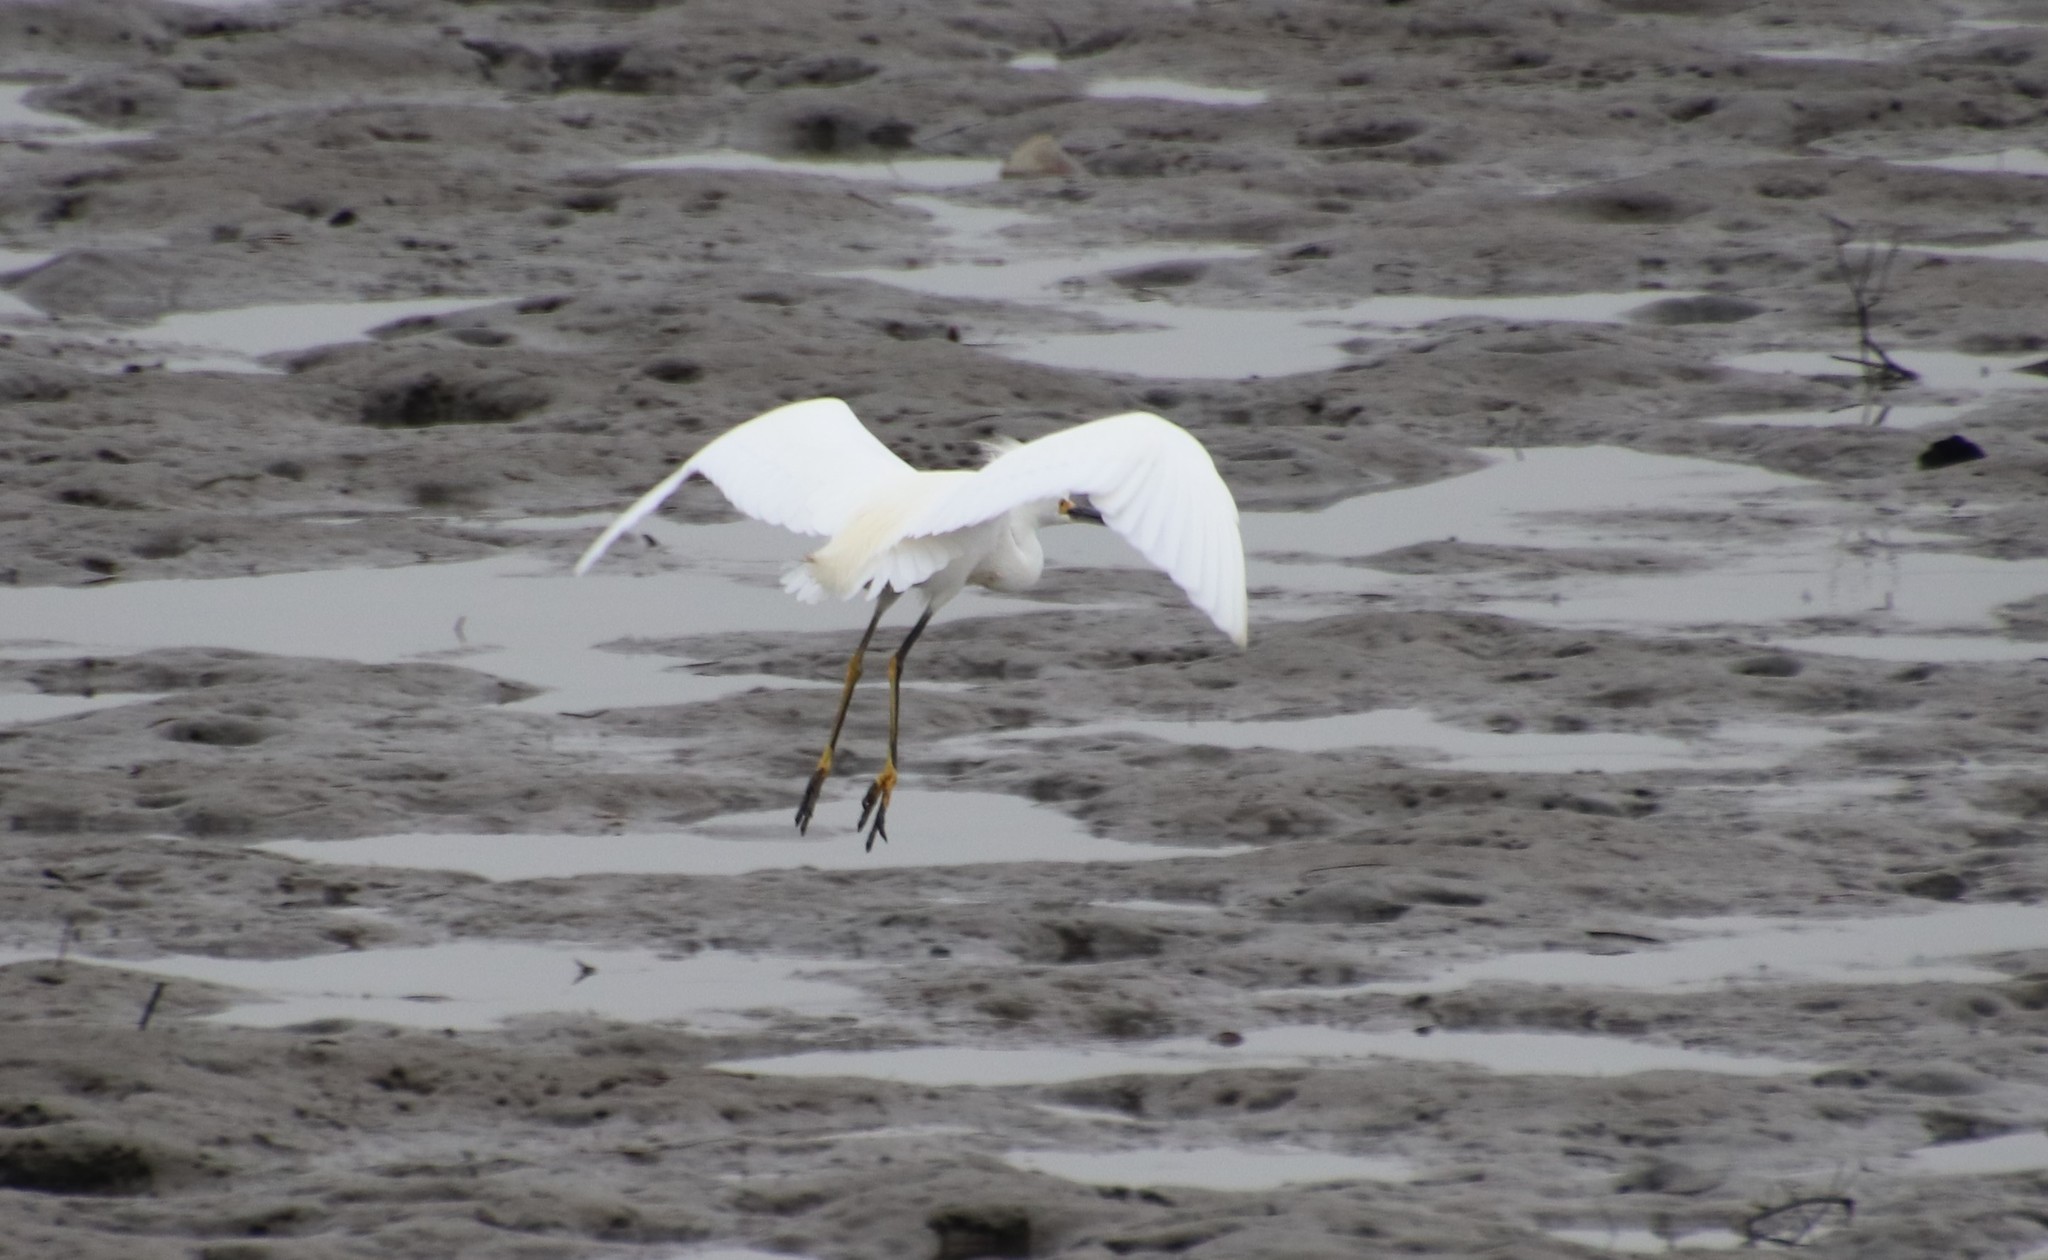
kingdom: Animalia
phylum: Chordata
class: Aves
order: Pelecaniformes
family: Ardeidae
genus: Egretta
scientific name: Egretta thula
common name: Snowy egret
